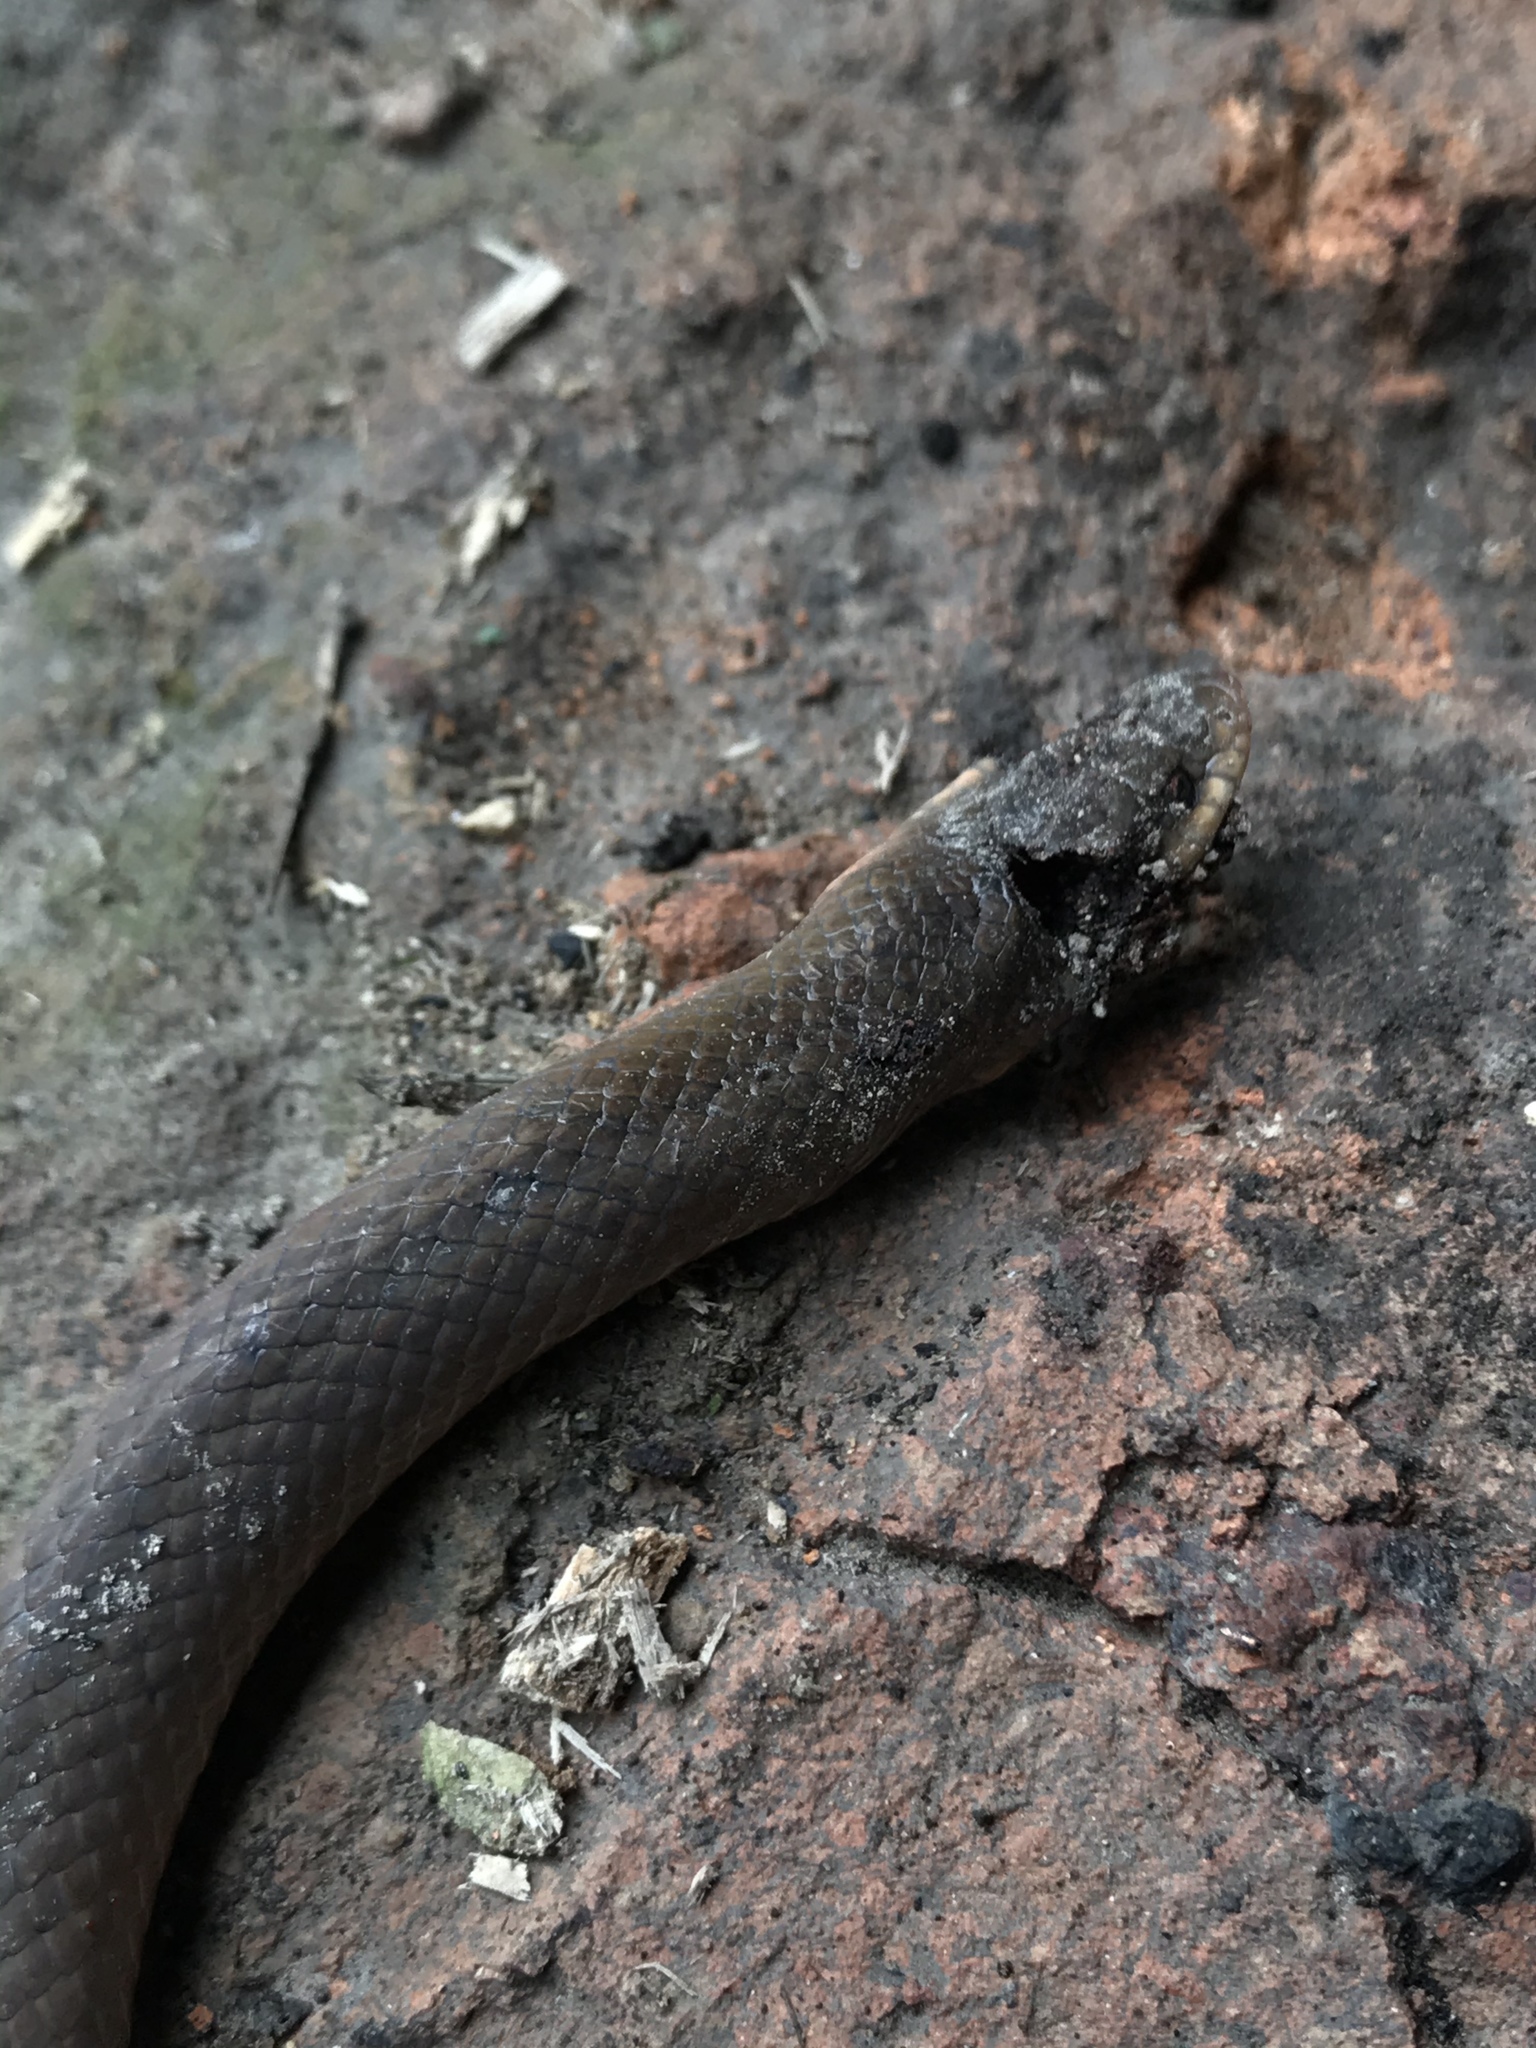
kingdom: Animalia
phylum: Chordata
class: Squamata
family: Colubridae
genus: Stenorrhina
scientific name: Stenorrhina degenhardtii
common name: Degenhardt's scorpion-eating snake
